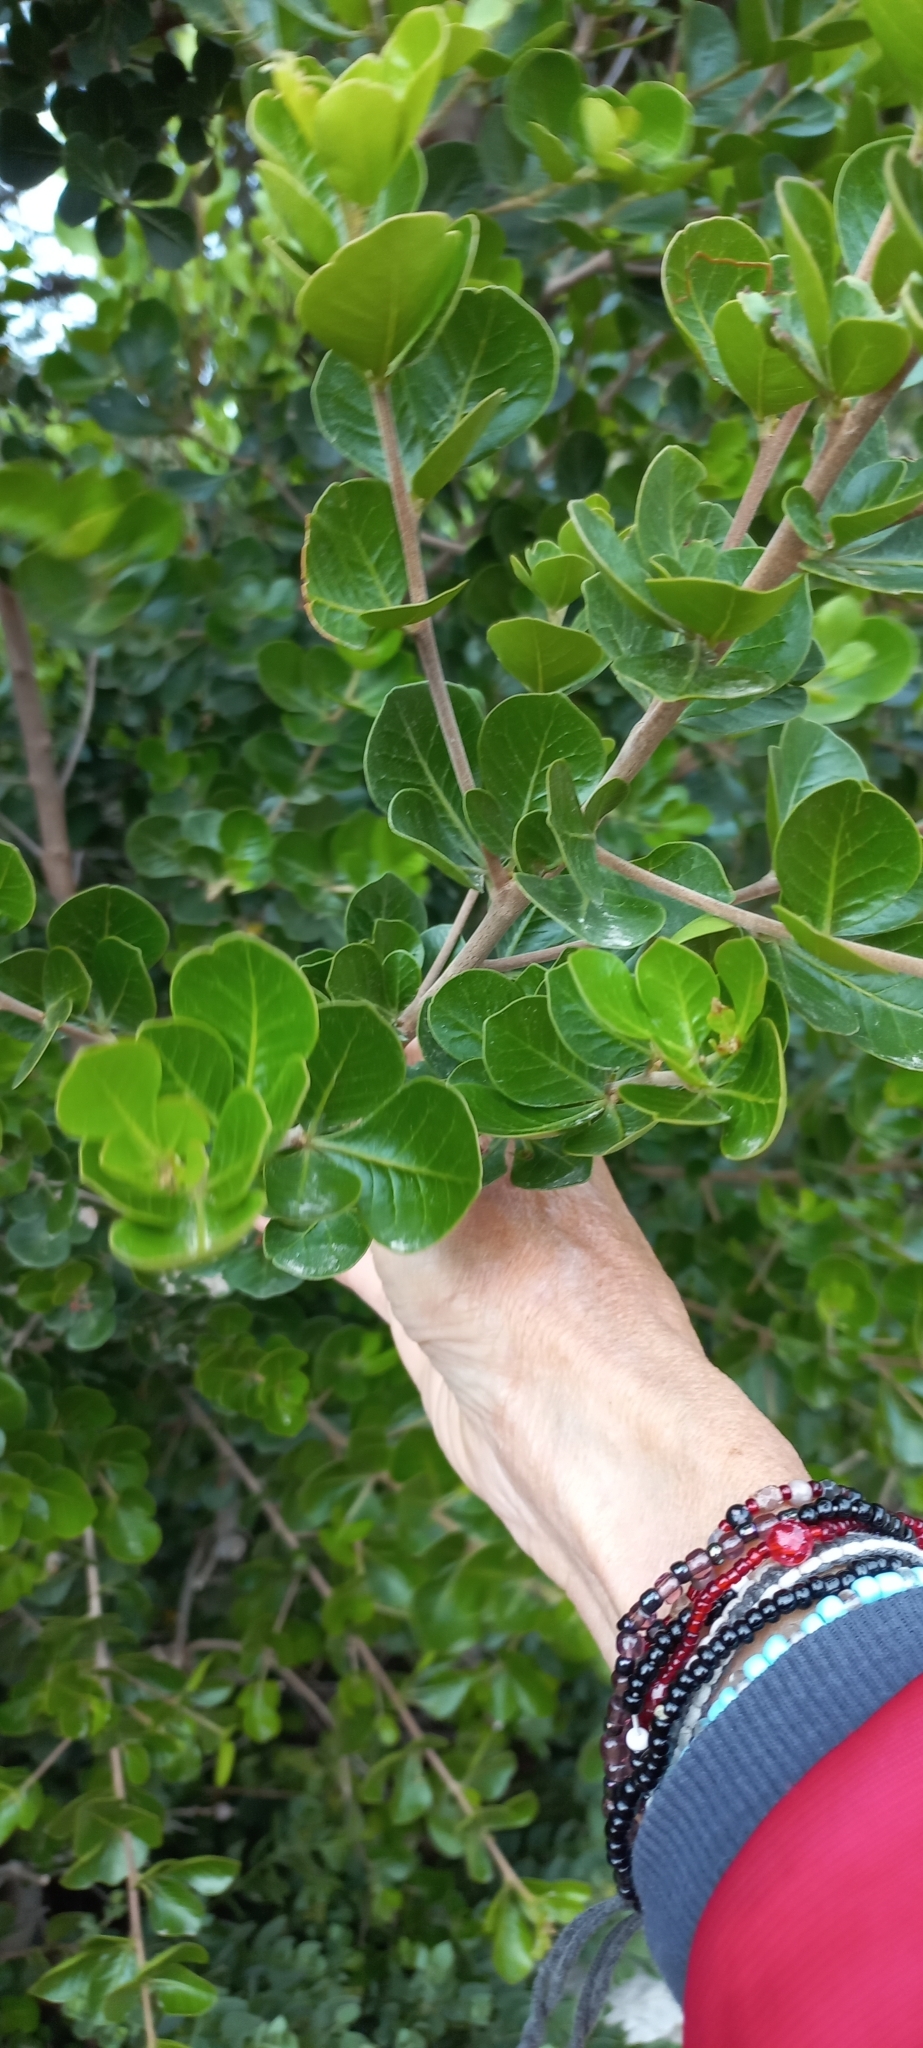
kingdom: Plantae
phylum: Tracheophyta
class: Magnoliopsida
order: Sapindales
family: Anacardiaceae
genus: Searsia
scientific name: Searsia lucida
